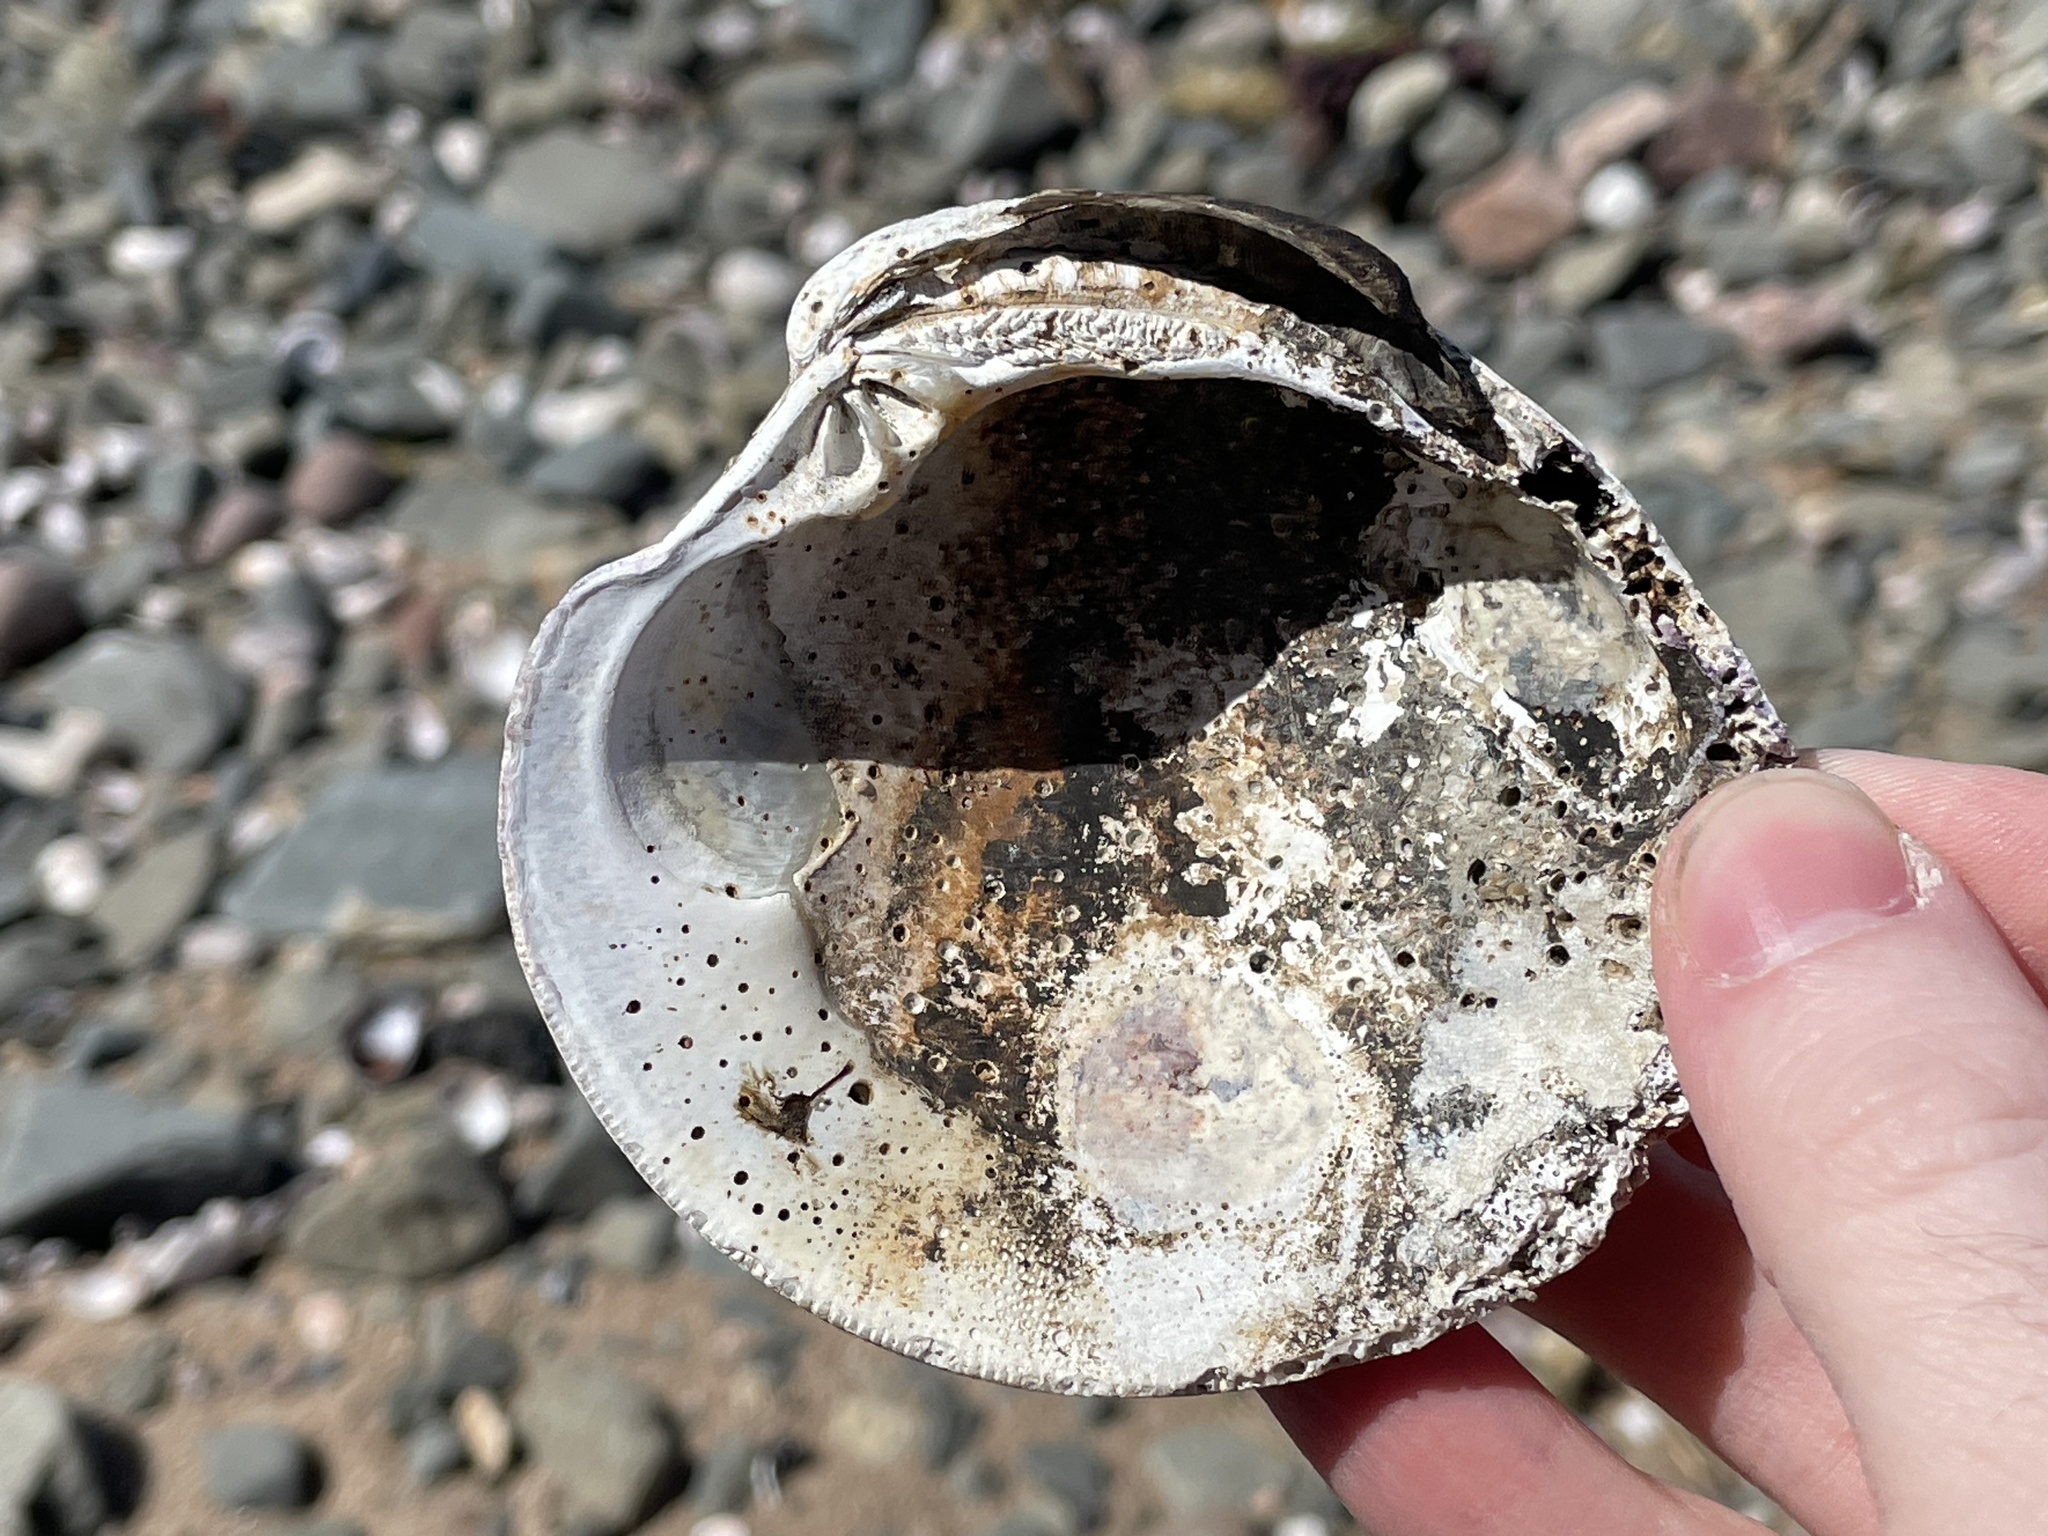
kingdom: Animalia
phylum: Mollusca
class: Bivalvia
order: Venerida
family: Veneridae
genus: Mercenaria
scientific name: Mercenaria mercenaria
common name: American hard-shelled clam
